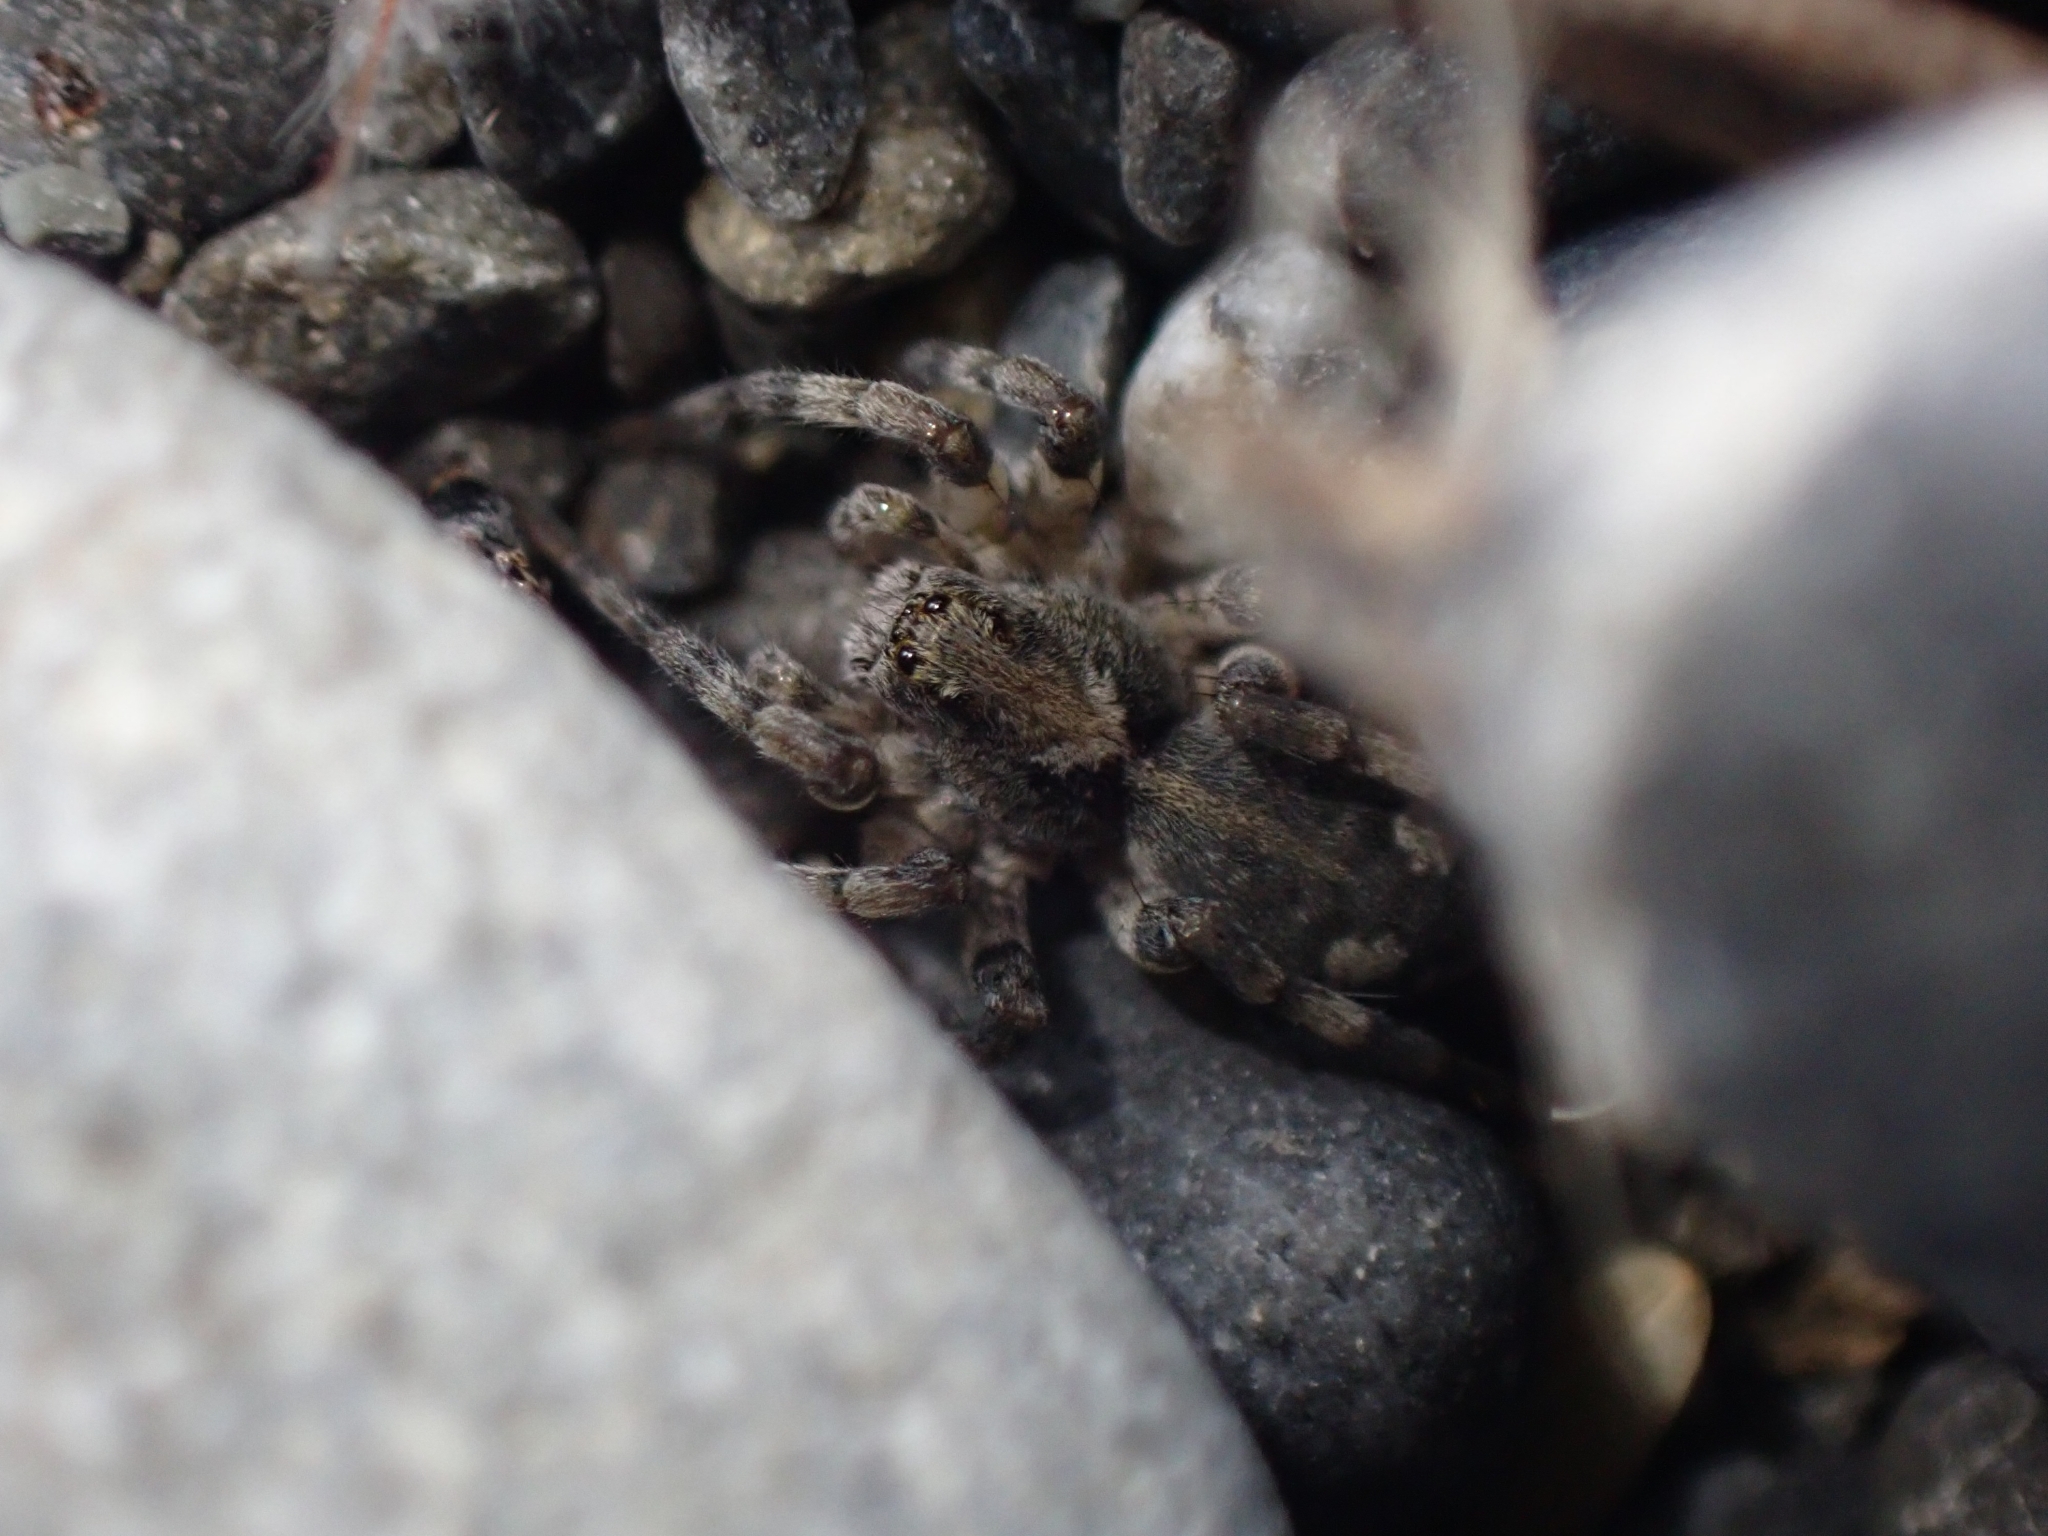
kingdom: Animalia
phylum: Arthropoda
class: Arachnida
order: Araneae
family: Lycosidae
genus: Anoteropsis
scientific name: Anoteropsis litoralis
